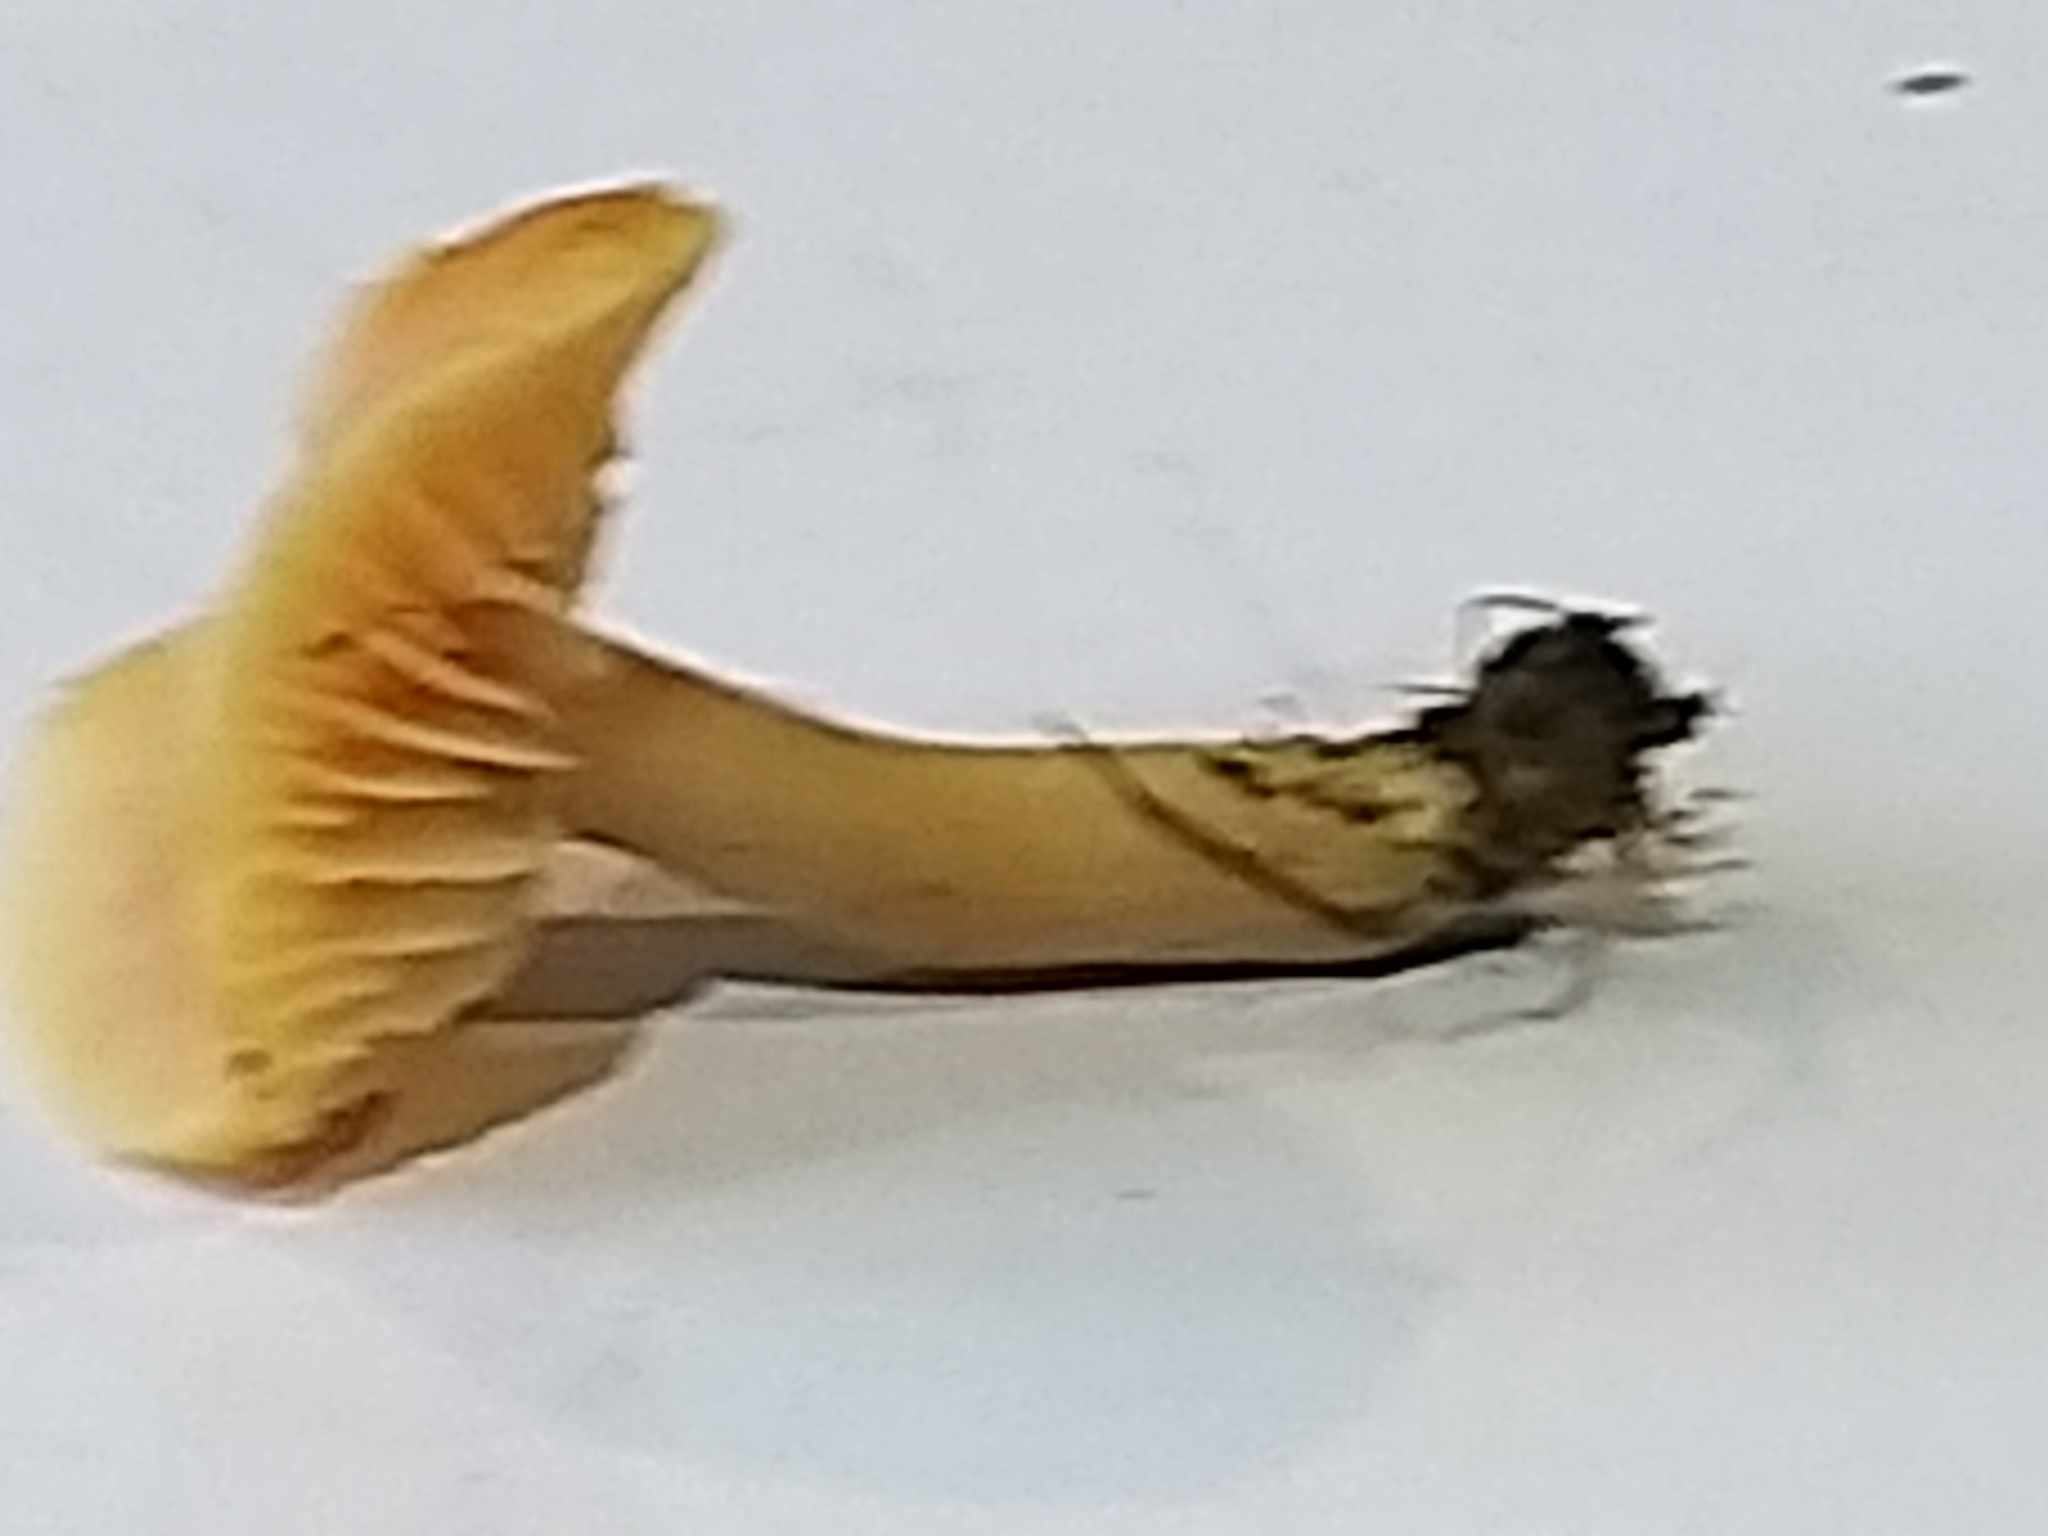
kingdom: Fungi
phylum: Basidiomycota
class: Agaricomycetes
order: Agaricales
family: Hygrophoraceae
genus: Cuphophyllus
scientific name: Cuphophyllus pratensis
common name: Meadow waxcap
